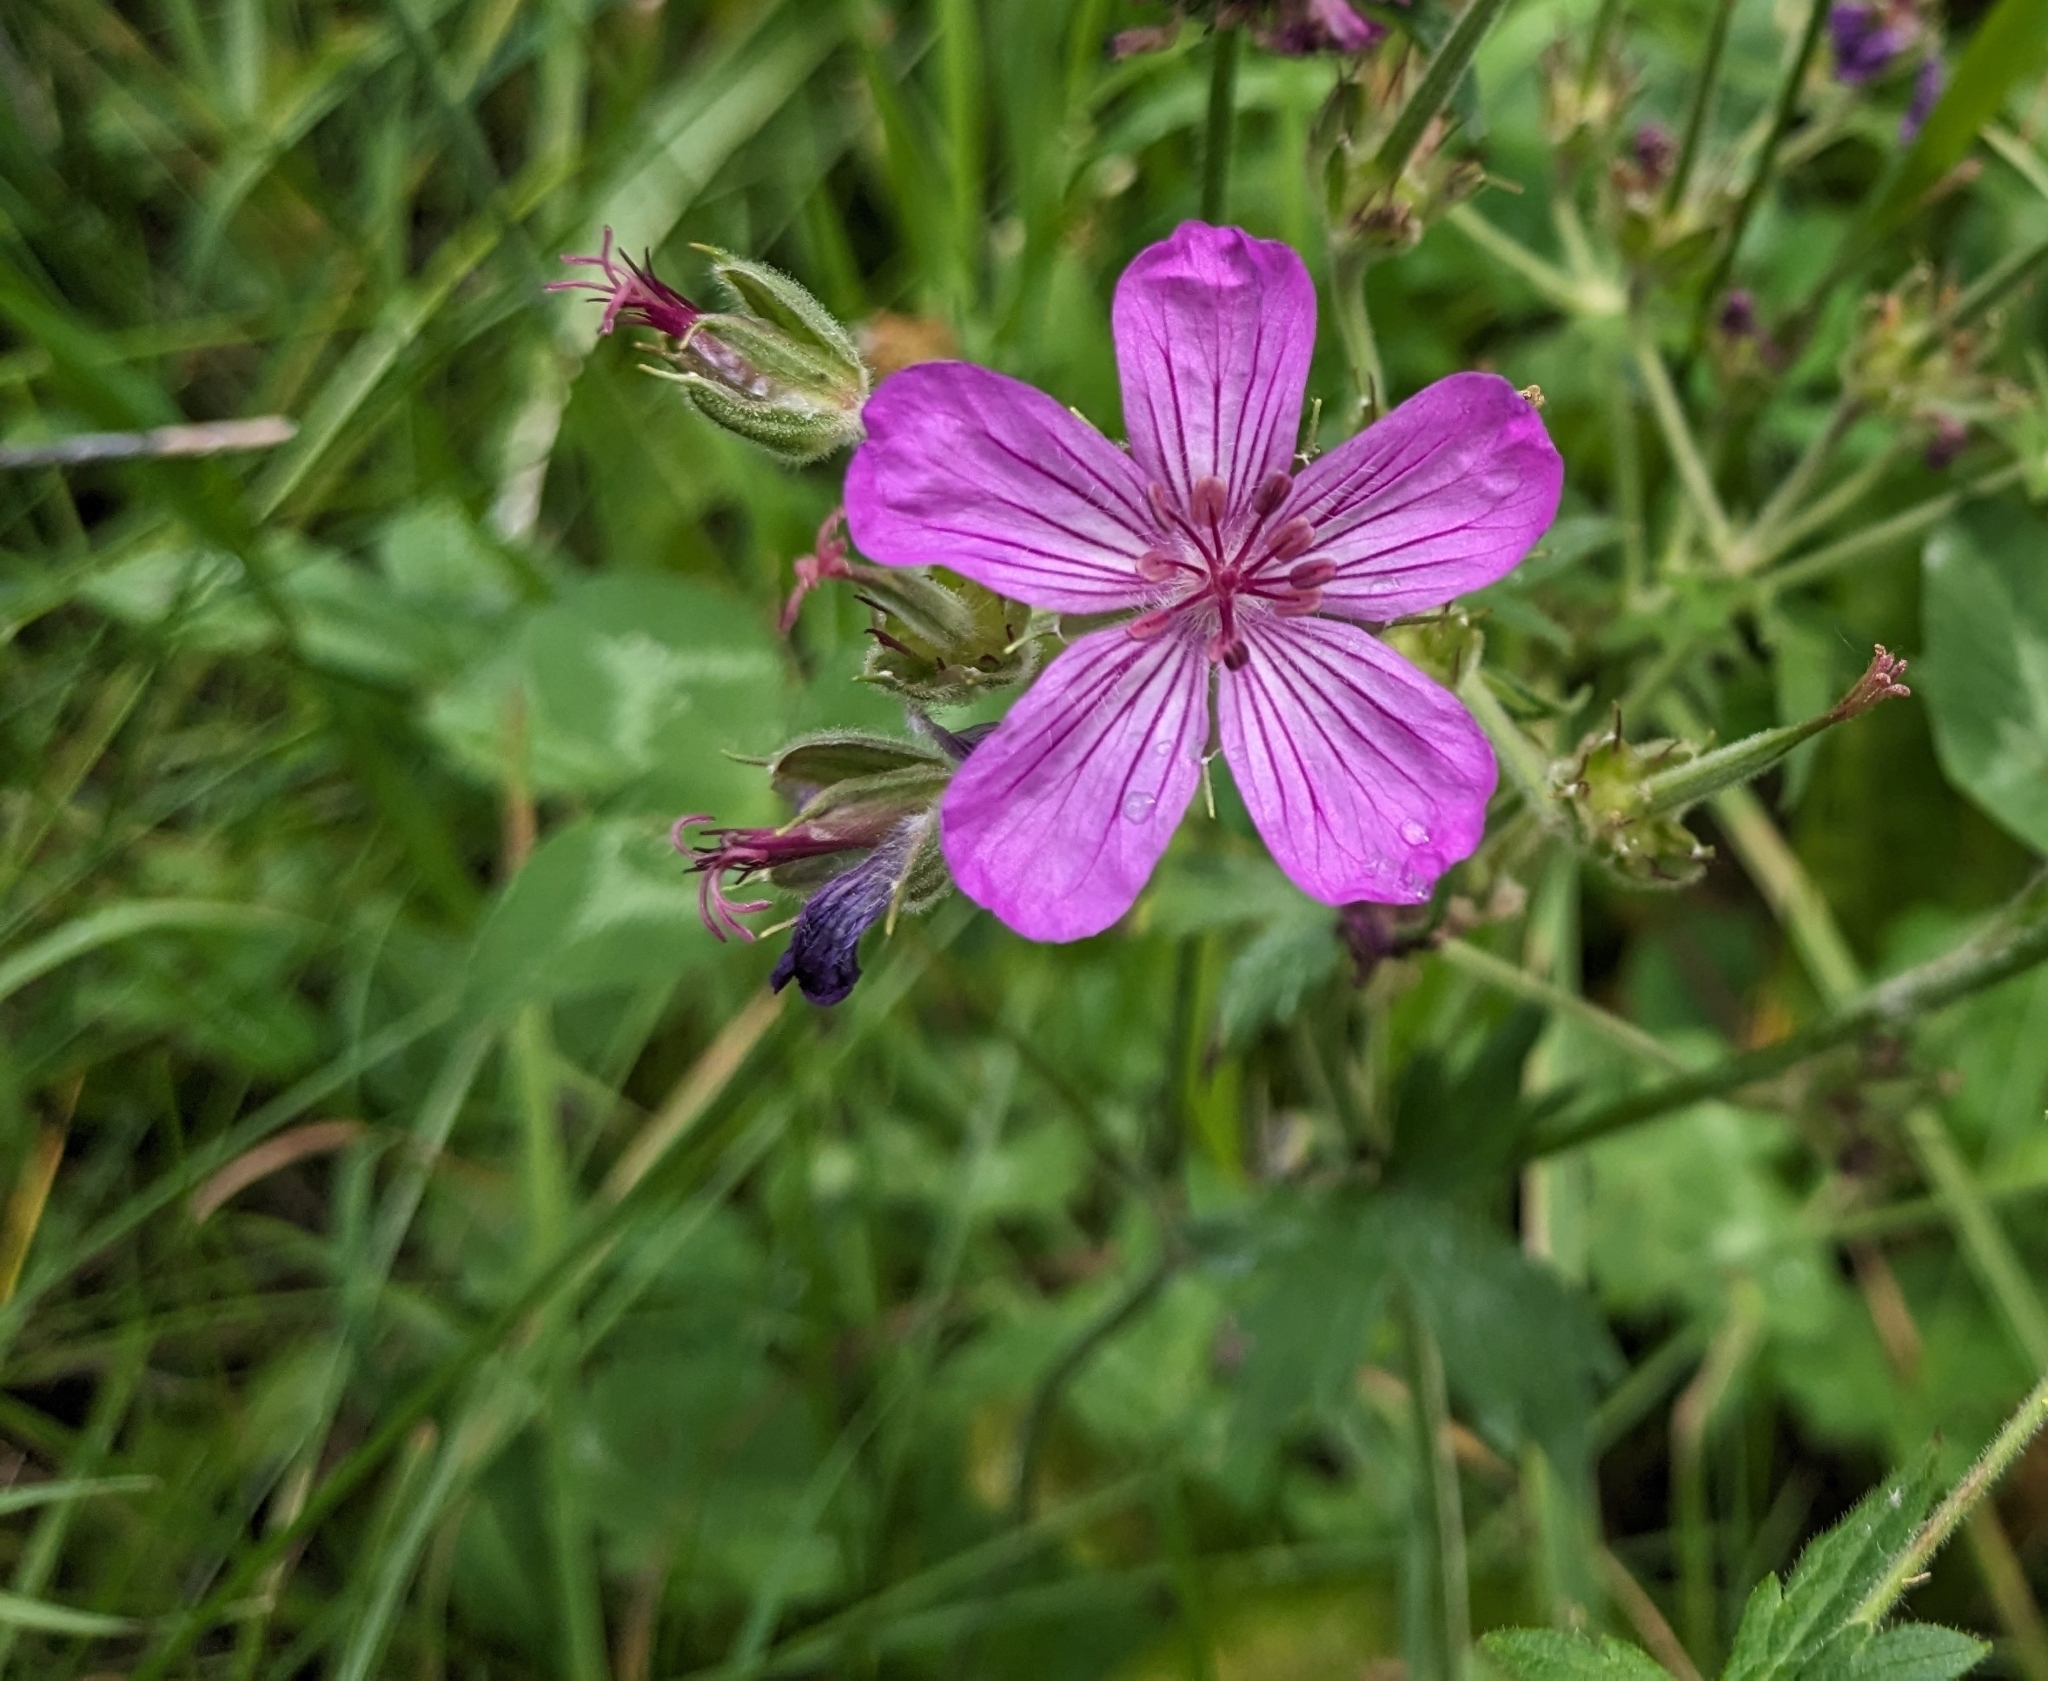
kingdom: Plantae
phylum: Tracheophyta
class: Magnoliopsida
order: Geraniales
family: Geraniaceae
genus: Geranium
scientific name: Geranium viscosissimum
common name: Purple geranium
